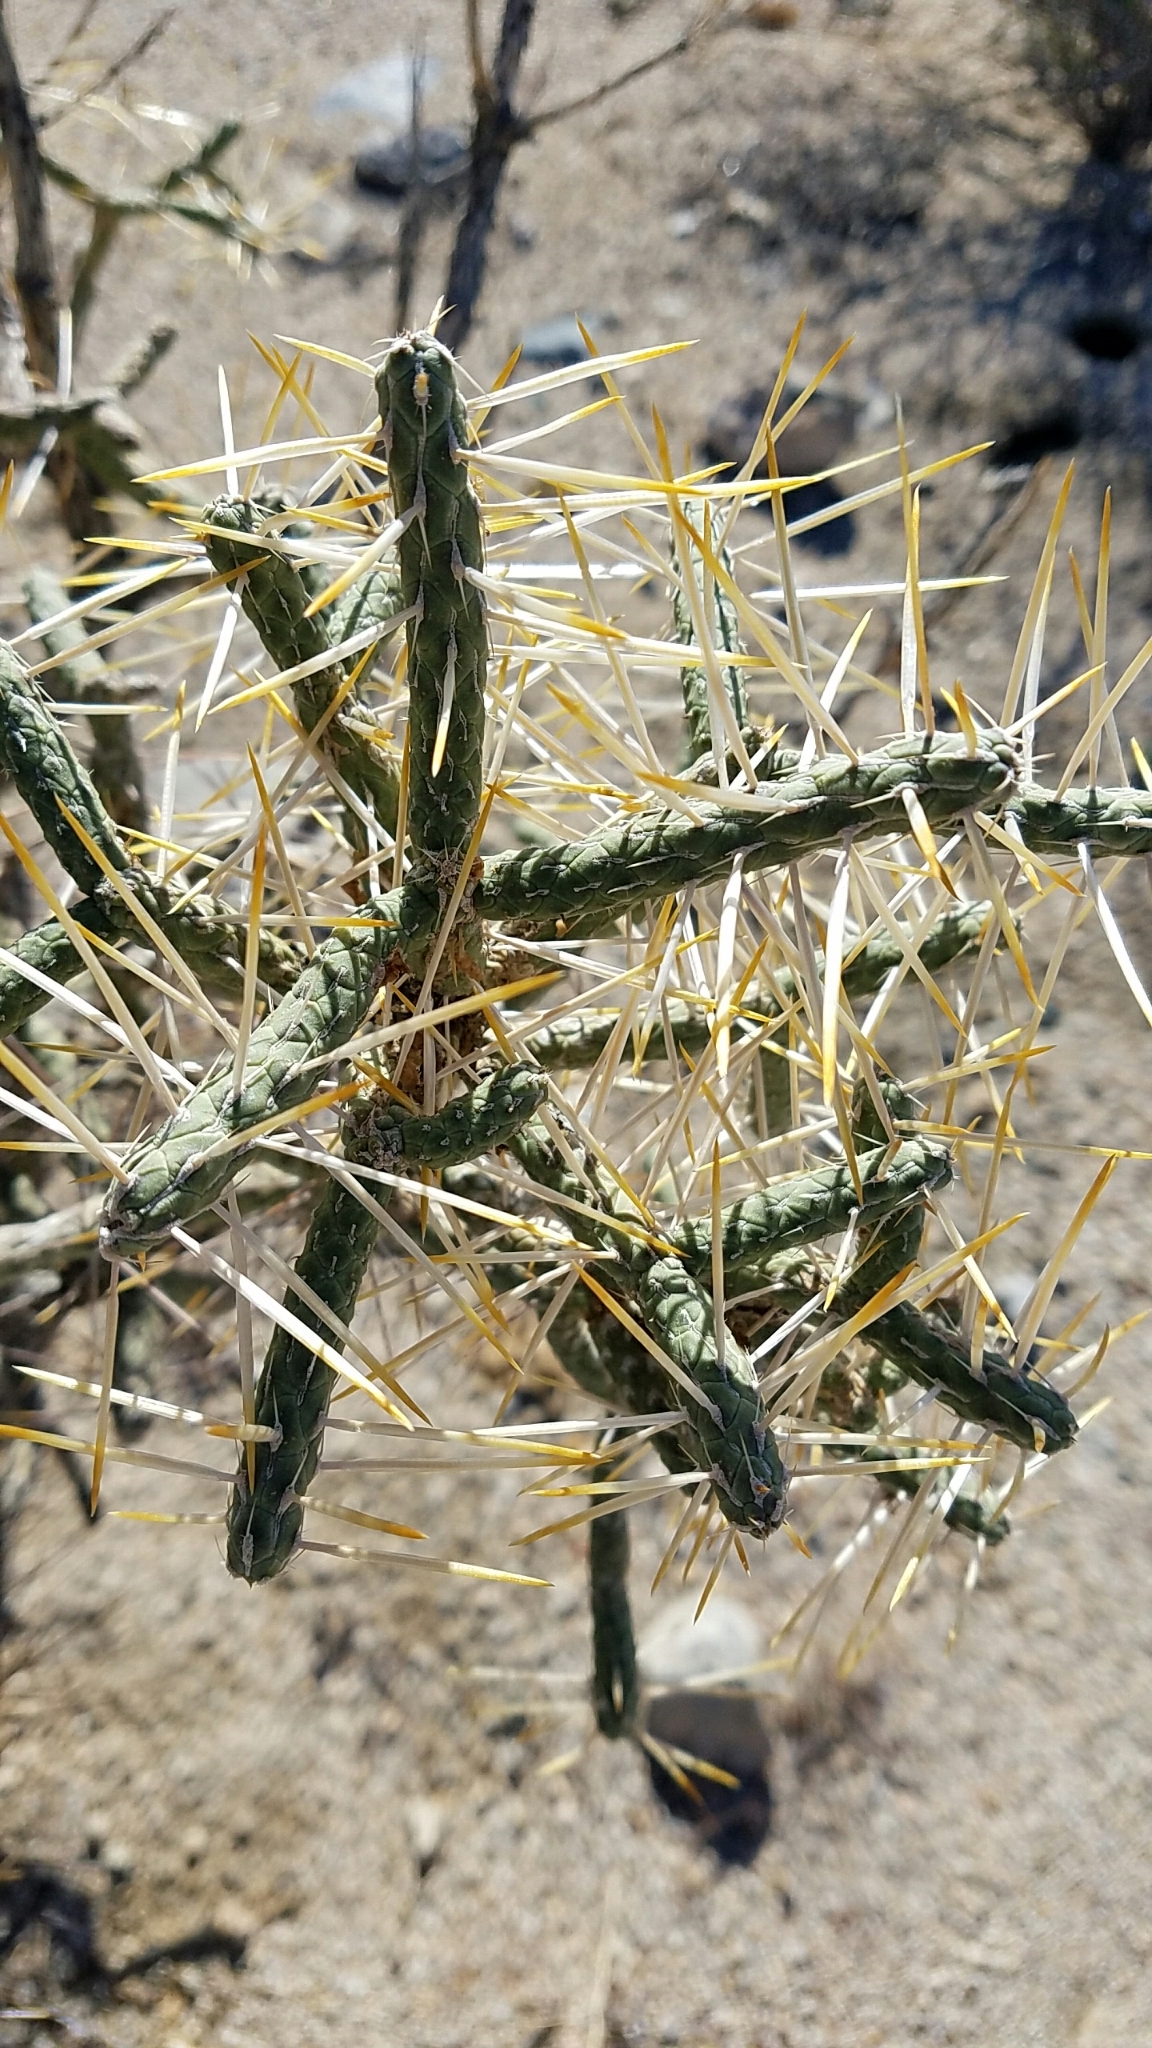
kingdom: Plantae
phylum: Tracheophyta
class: Magnoliopsida
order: Caryophyllales
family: Cactaceae
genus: Cylindropuntia
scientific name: Cylindropuntia ramosissima
